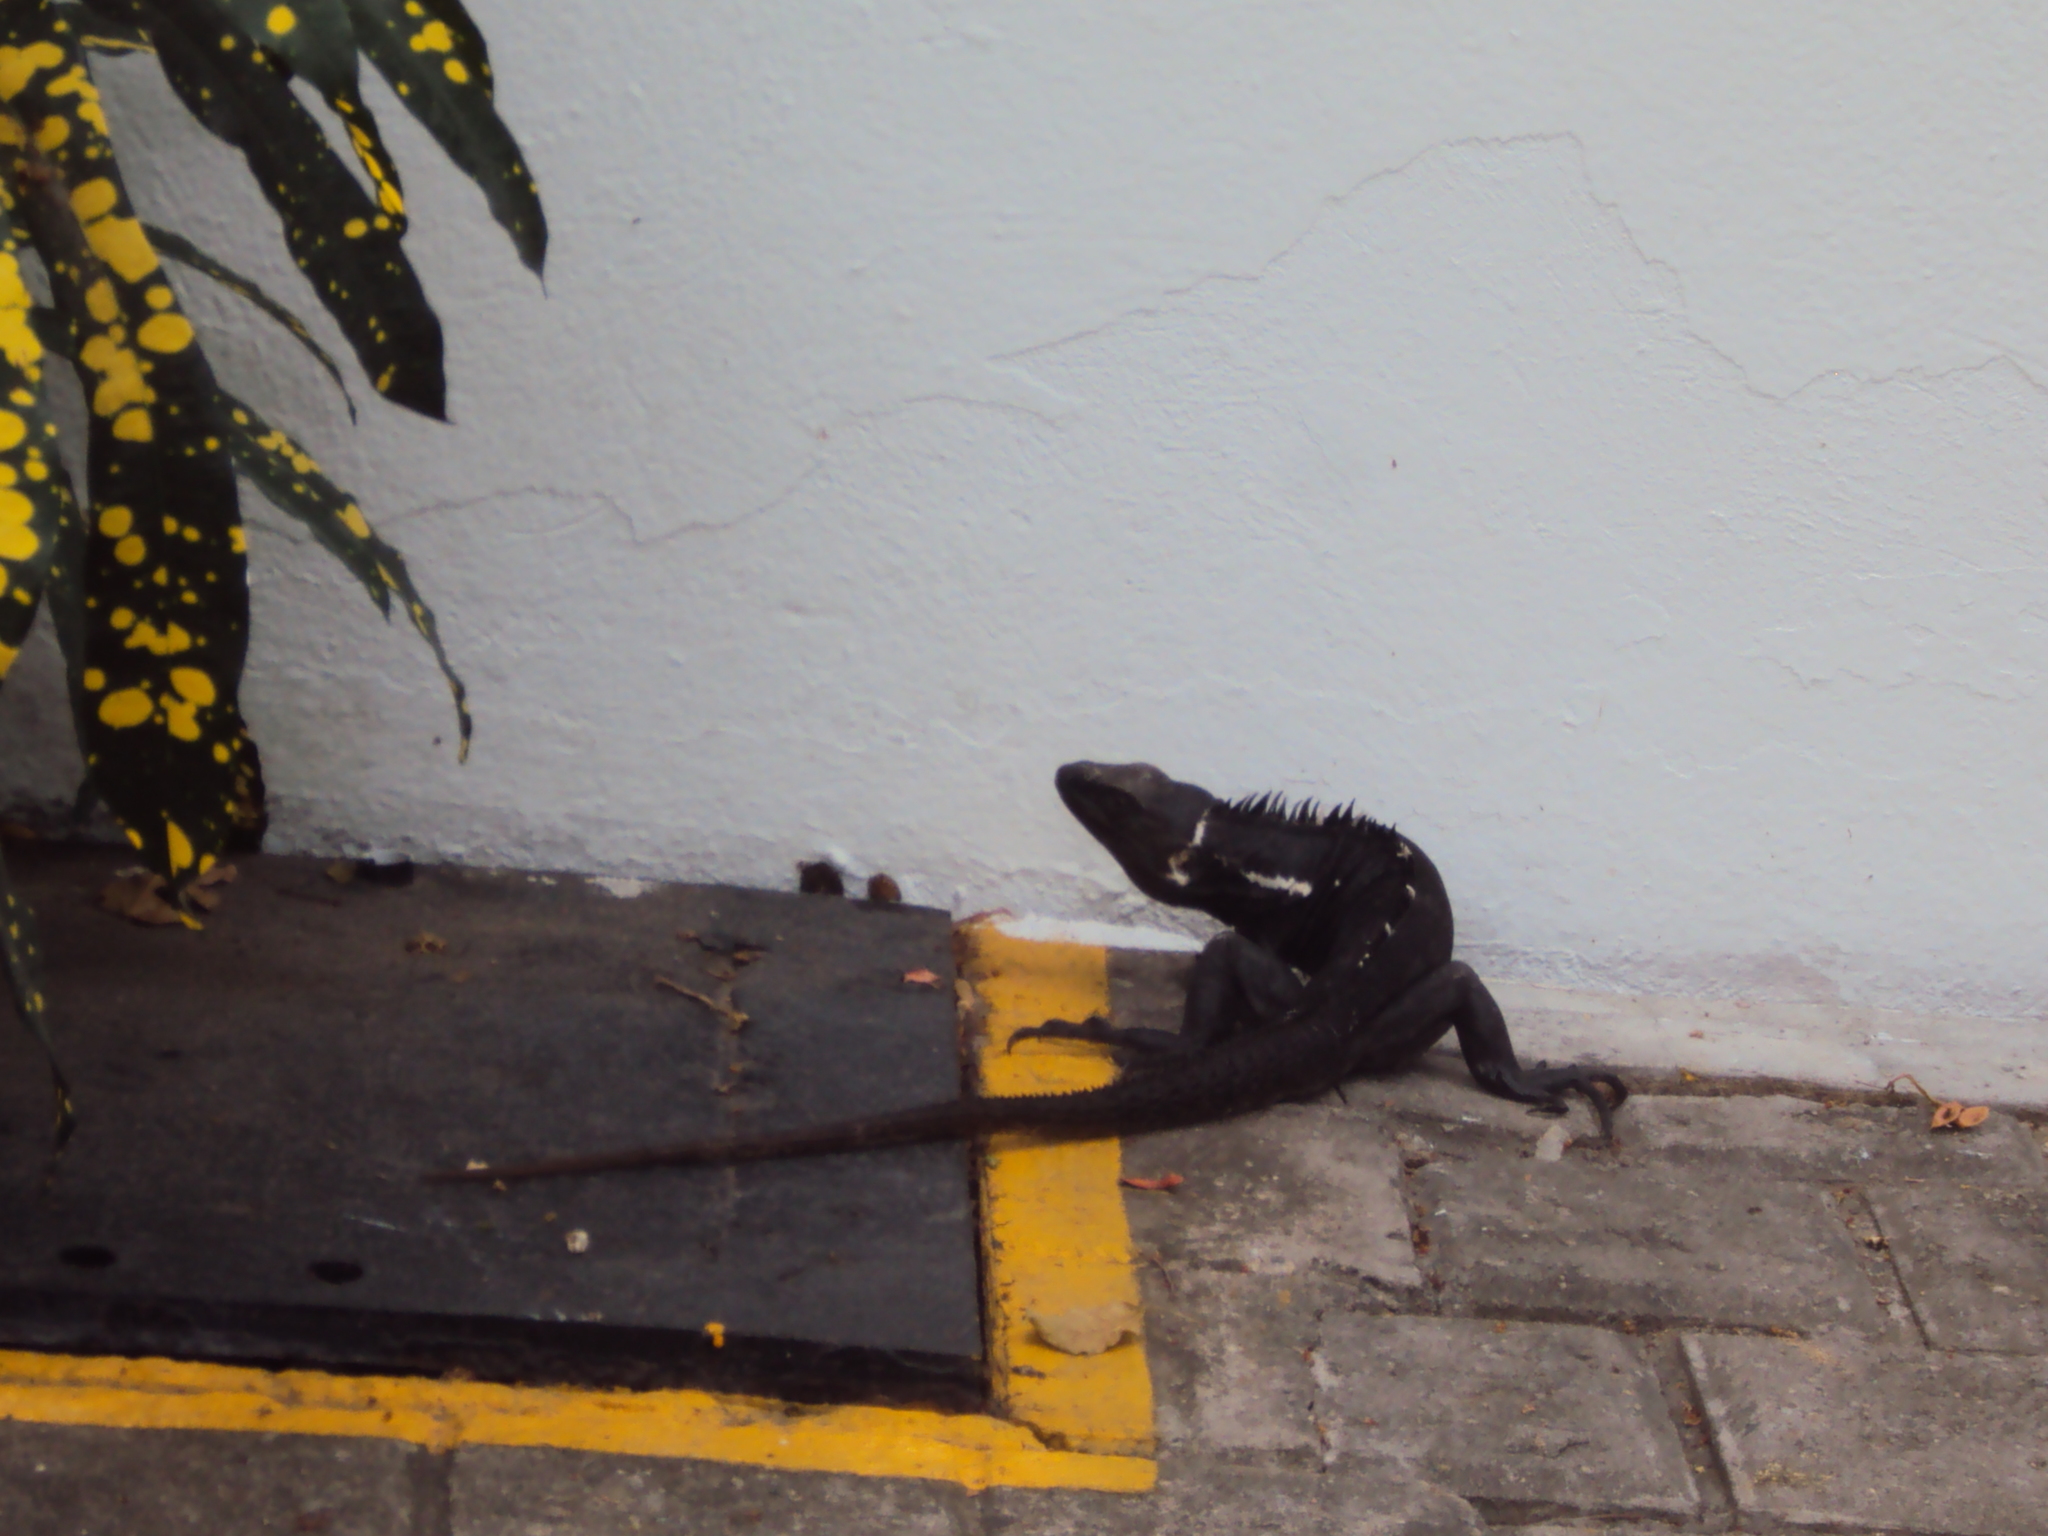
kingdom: Animalia
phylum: Chordata
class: Squamata
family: Iguanidae
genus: Ctenosaura
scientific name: Ctenosaura pectinata
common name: Guerreran spiny-tailed iguana
